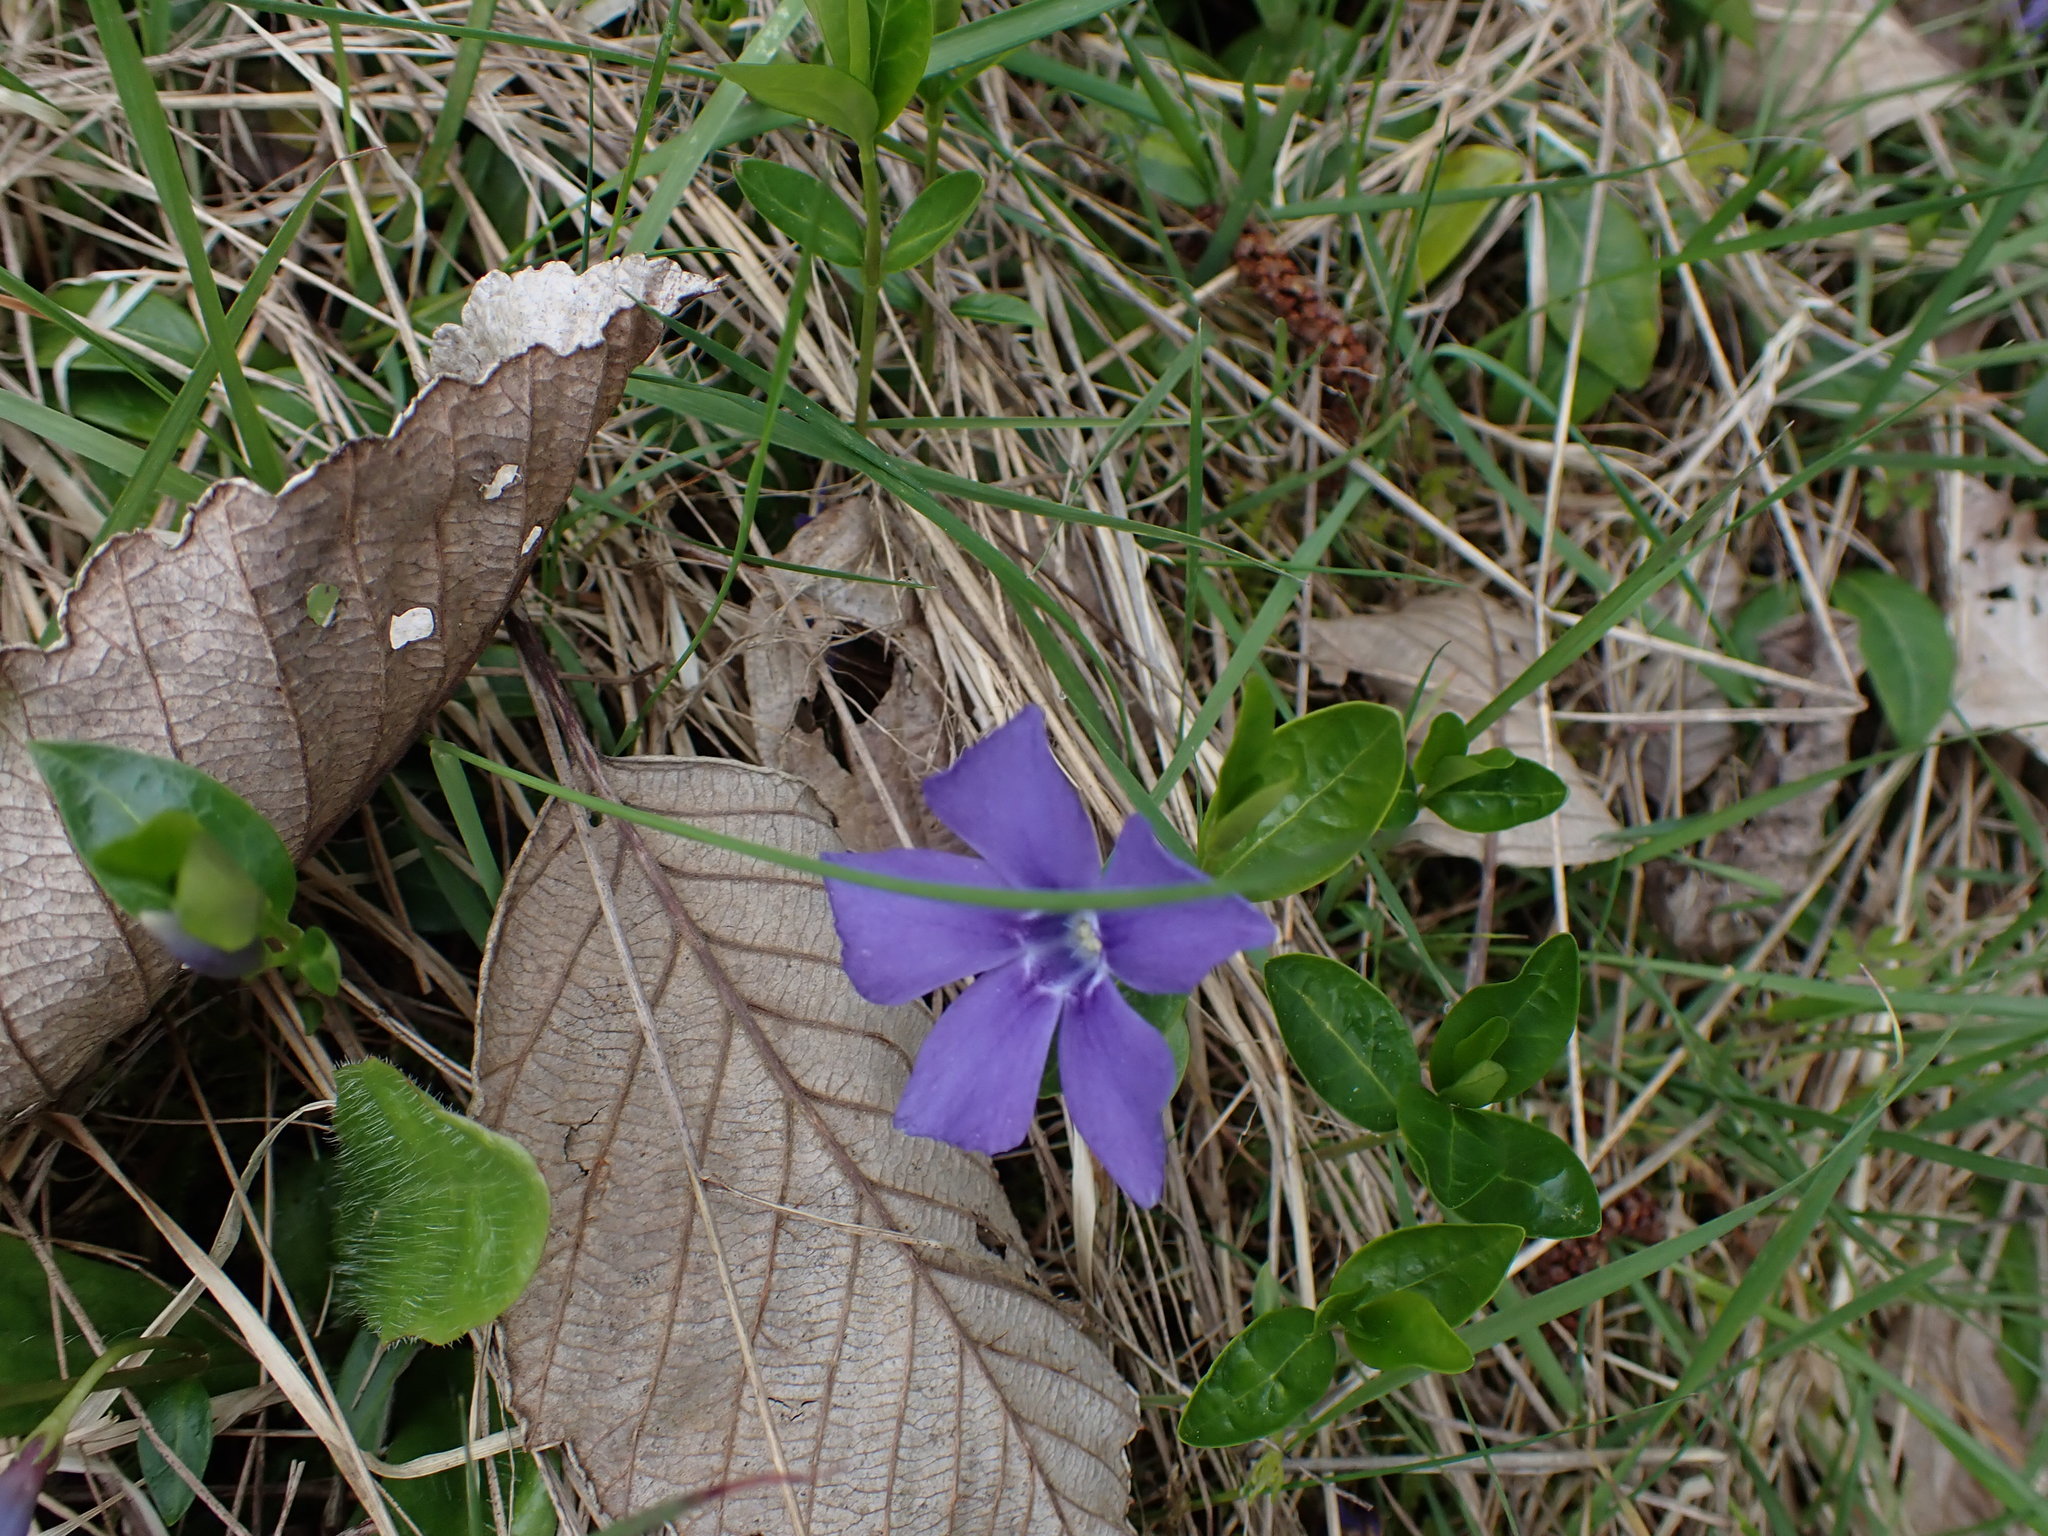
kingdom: Plantae
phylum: Tracheophyta
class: Magnoliopsida
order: Gentianales
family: Apocynaceae
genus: Vinca
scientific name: Vinca minor
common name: Lesser periwinkle
